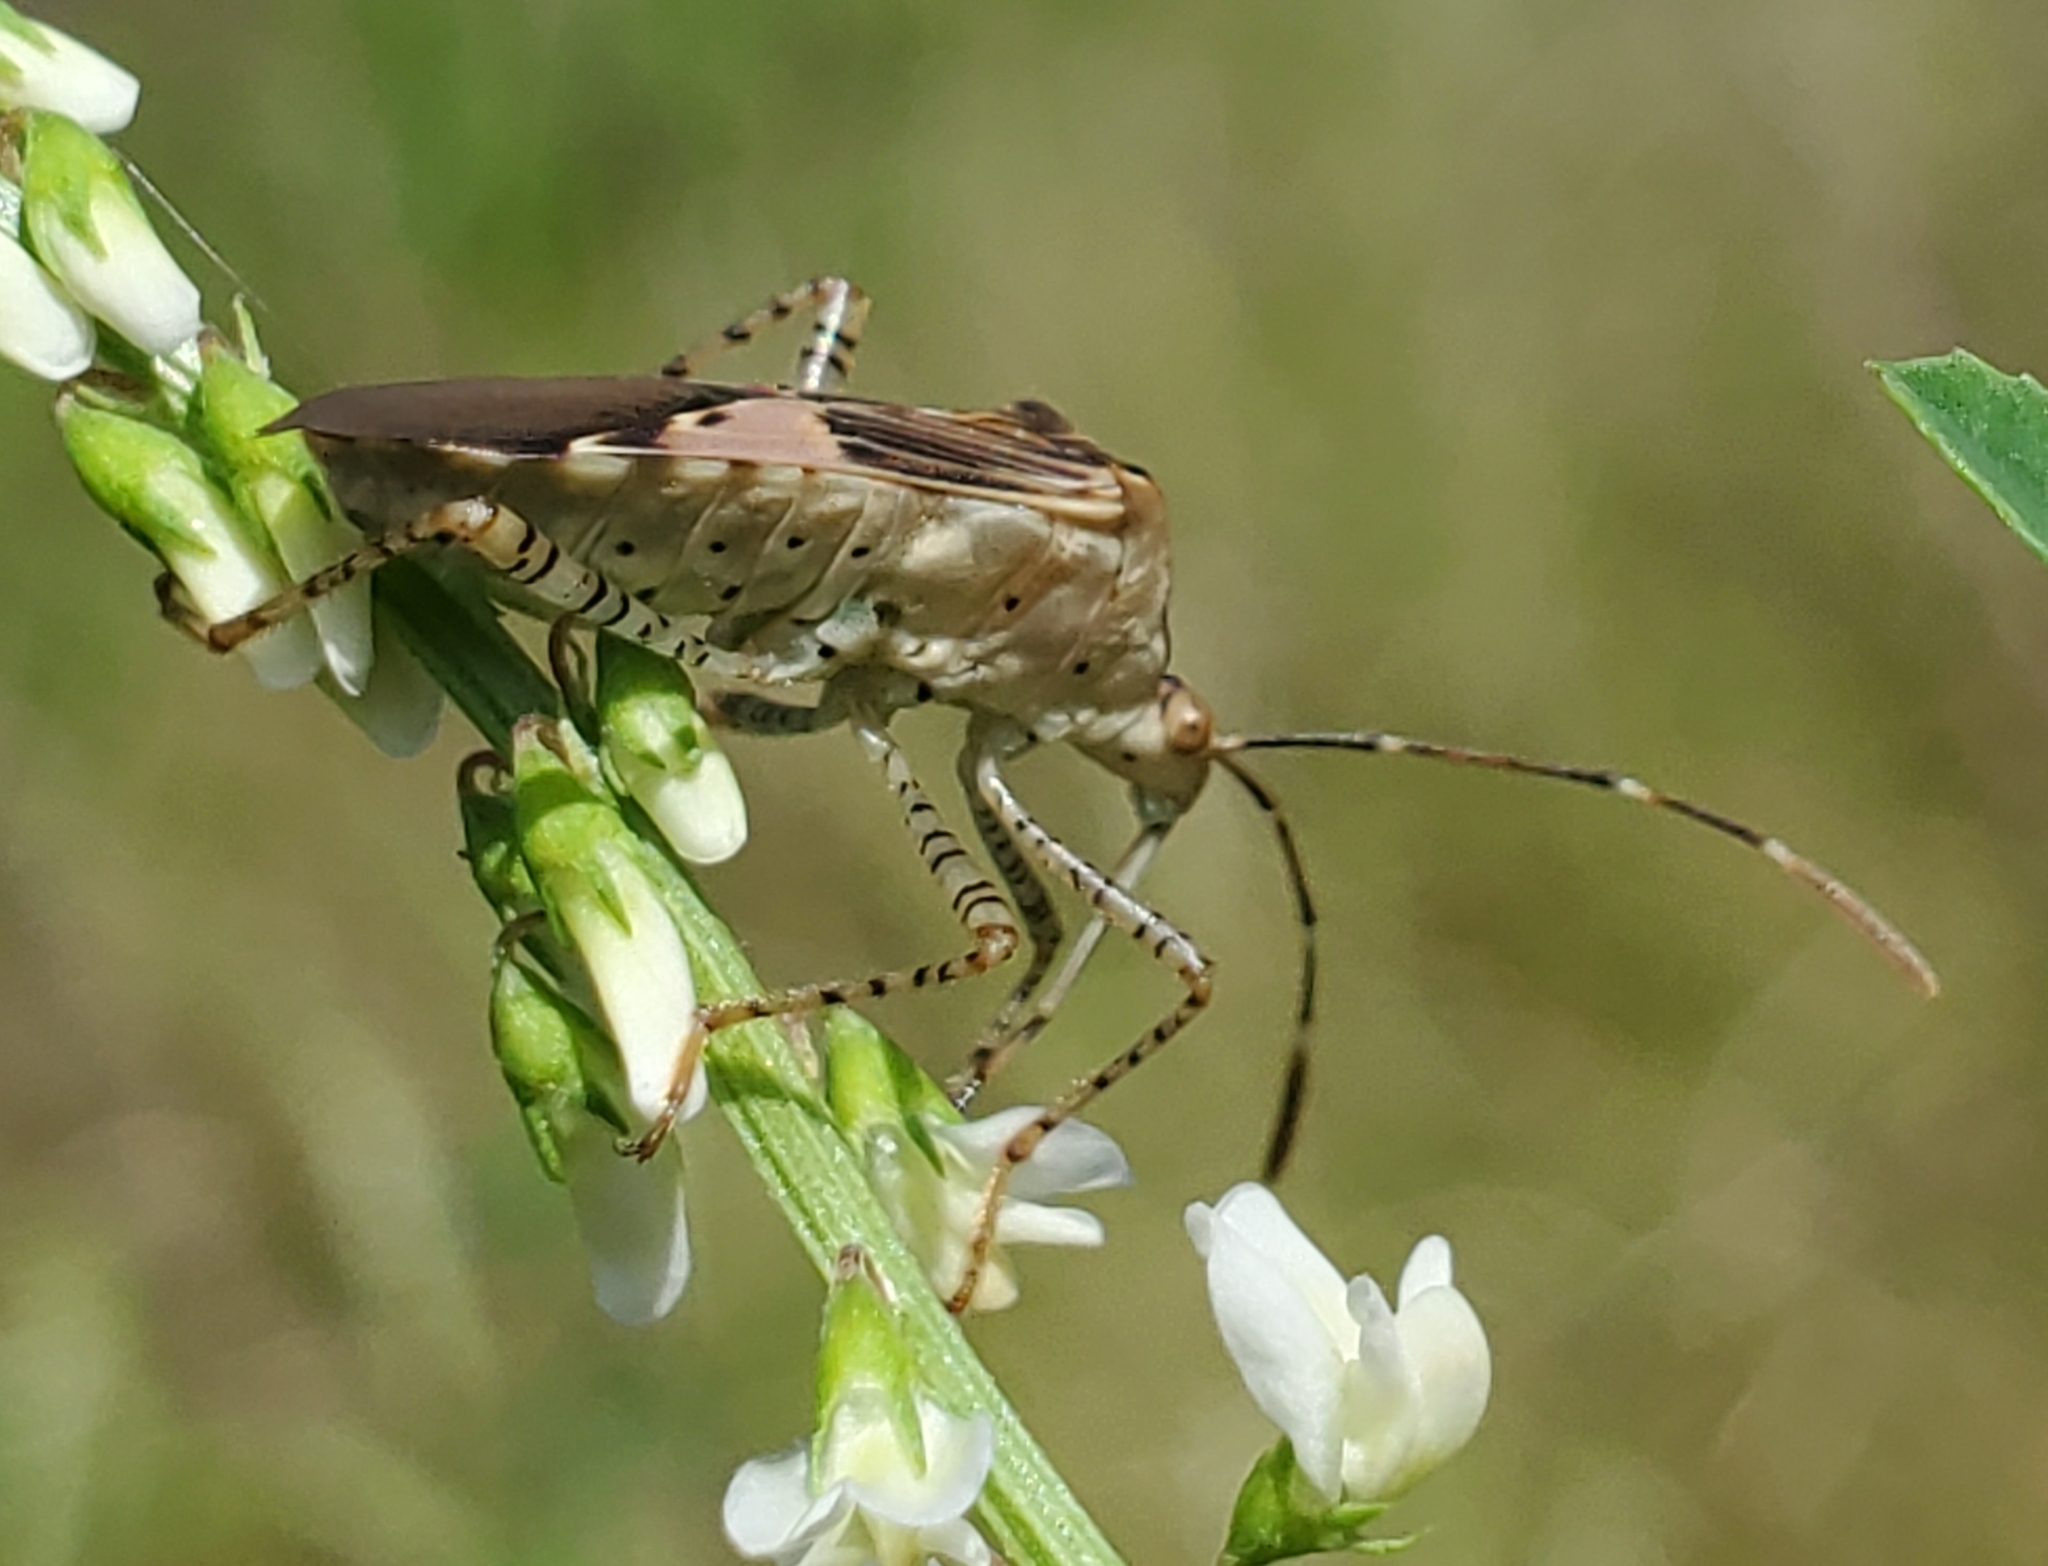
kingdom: Animalia
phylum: Arthropoda
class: Insecta
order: Hemiptera
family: Coreidae
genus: Hypselonotus
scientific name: Hypselonotus punctiventris
